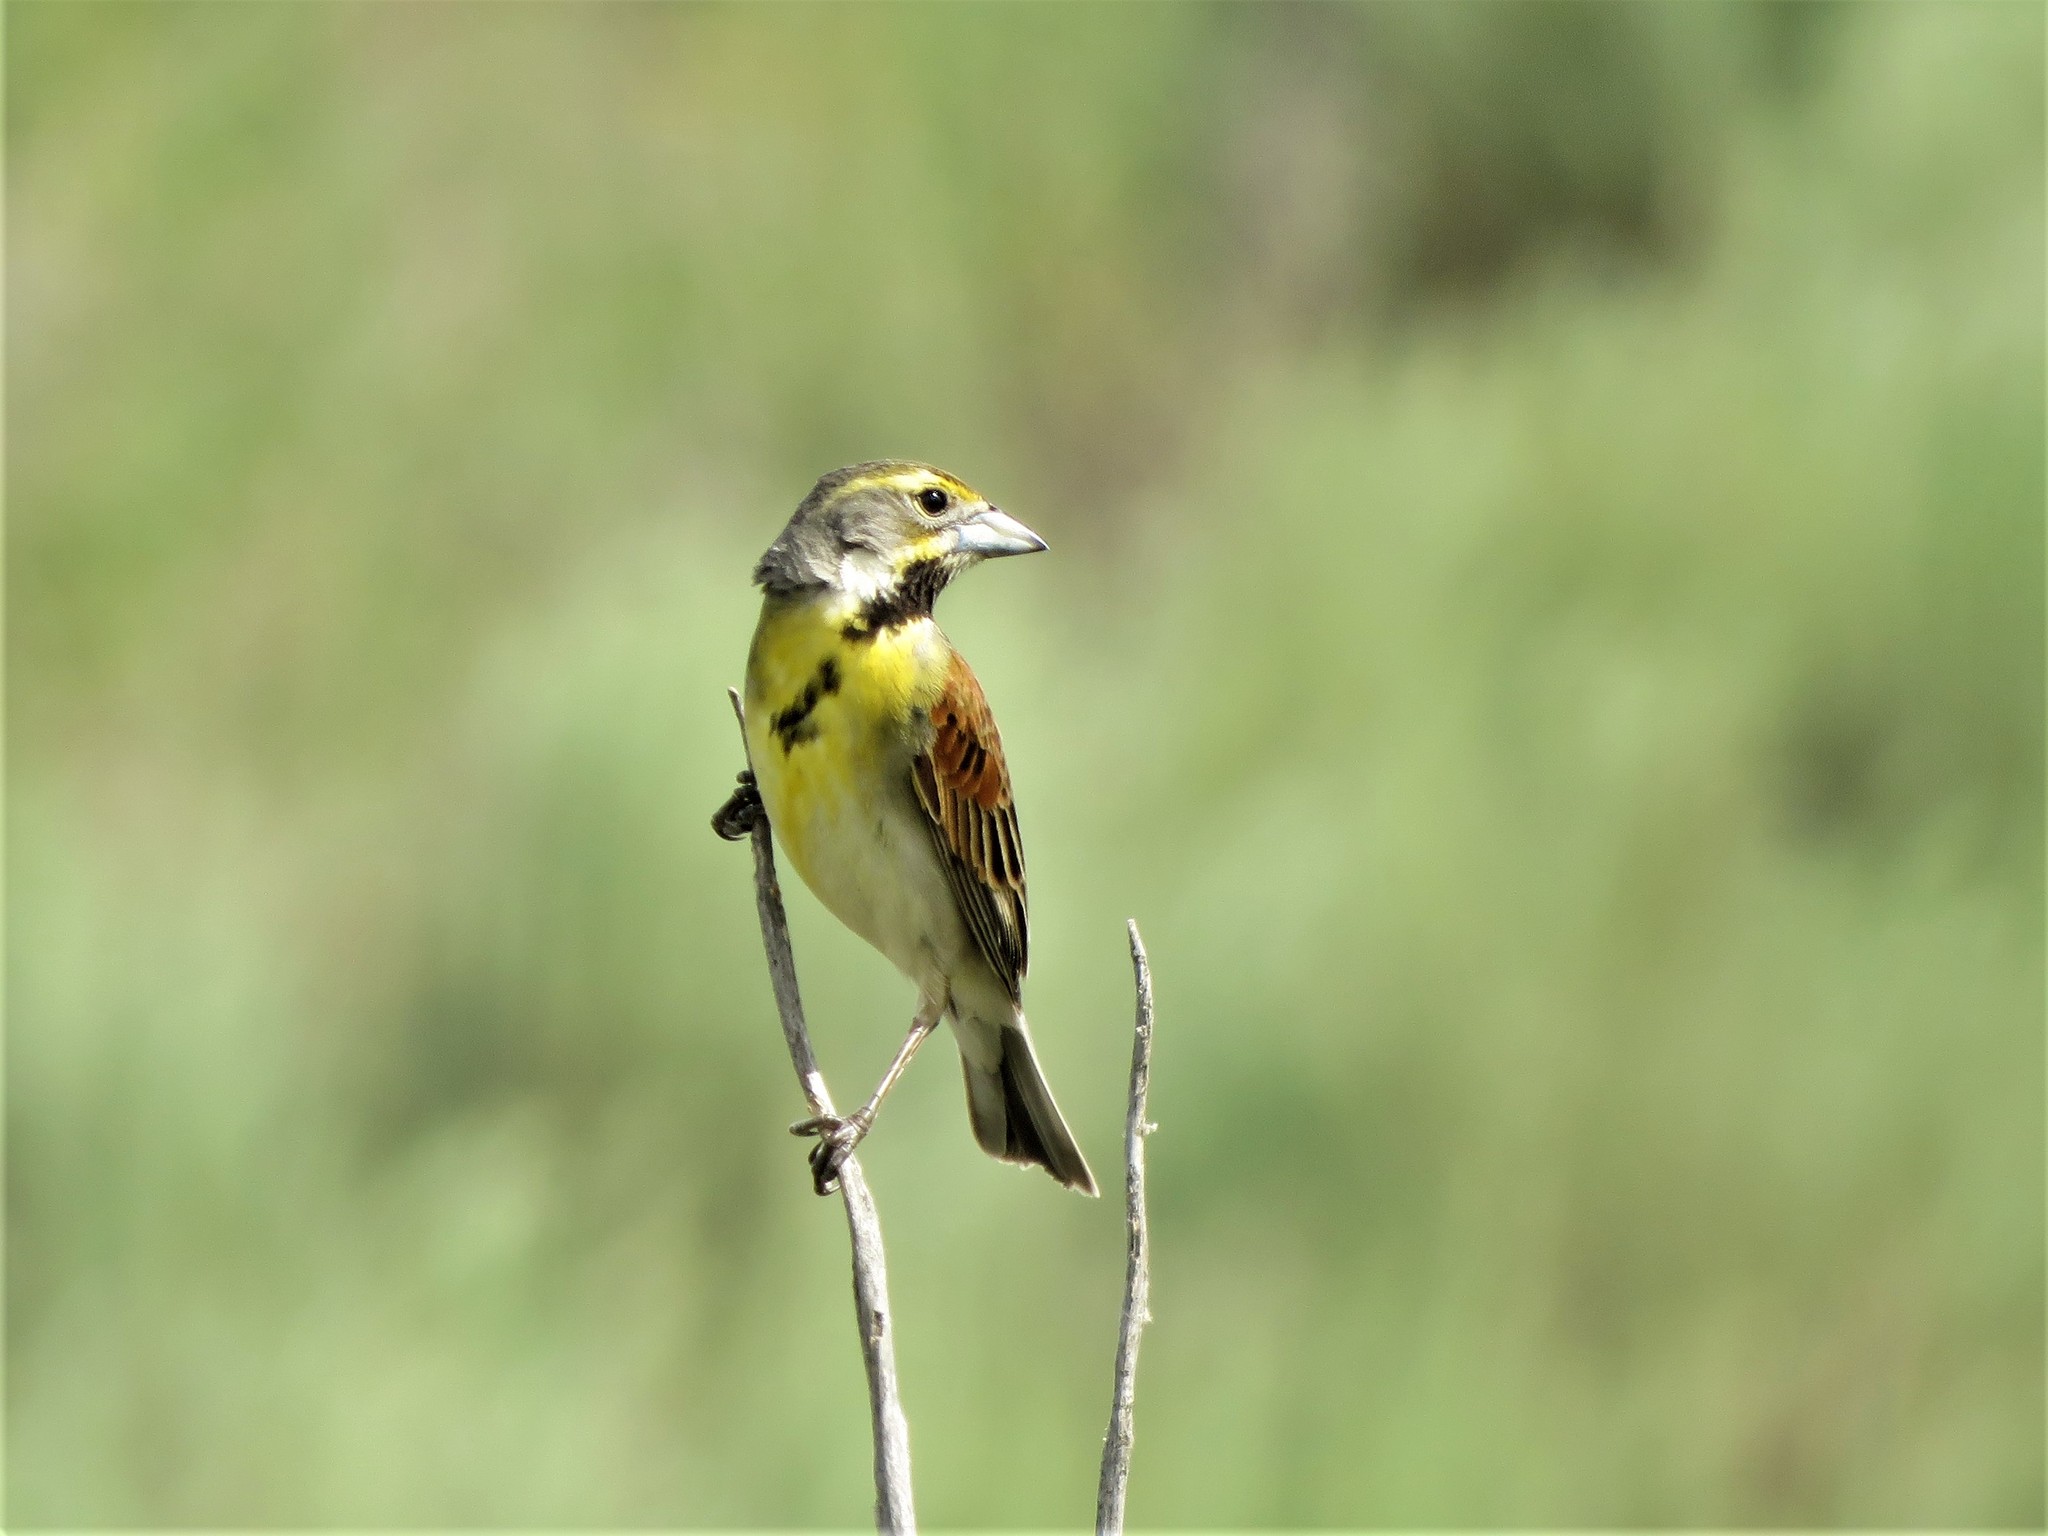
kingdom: Animalia
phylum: Chordata
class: Aves
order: Passeriformes
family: Cardinalidae
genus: Spiza
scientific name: Spiza americana
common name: Dickcissel
